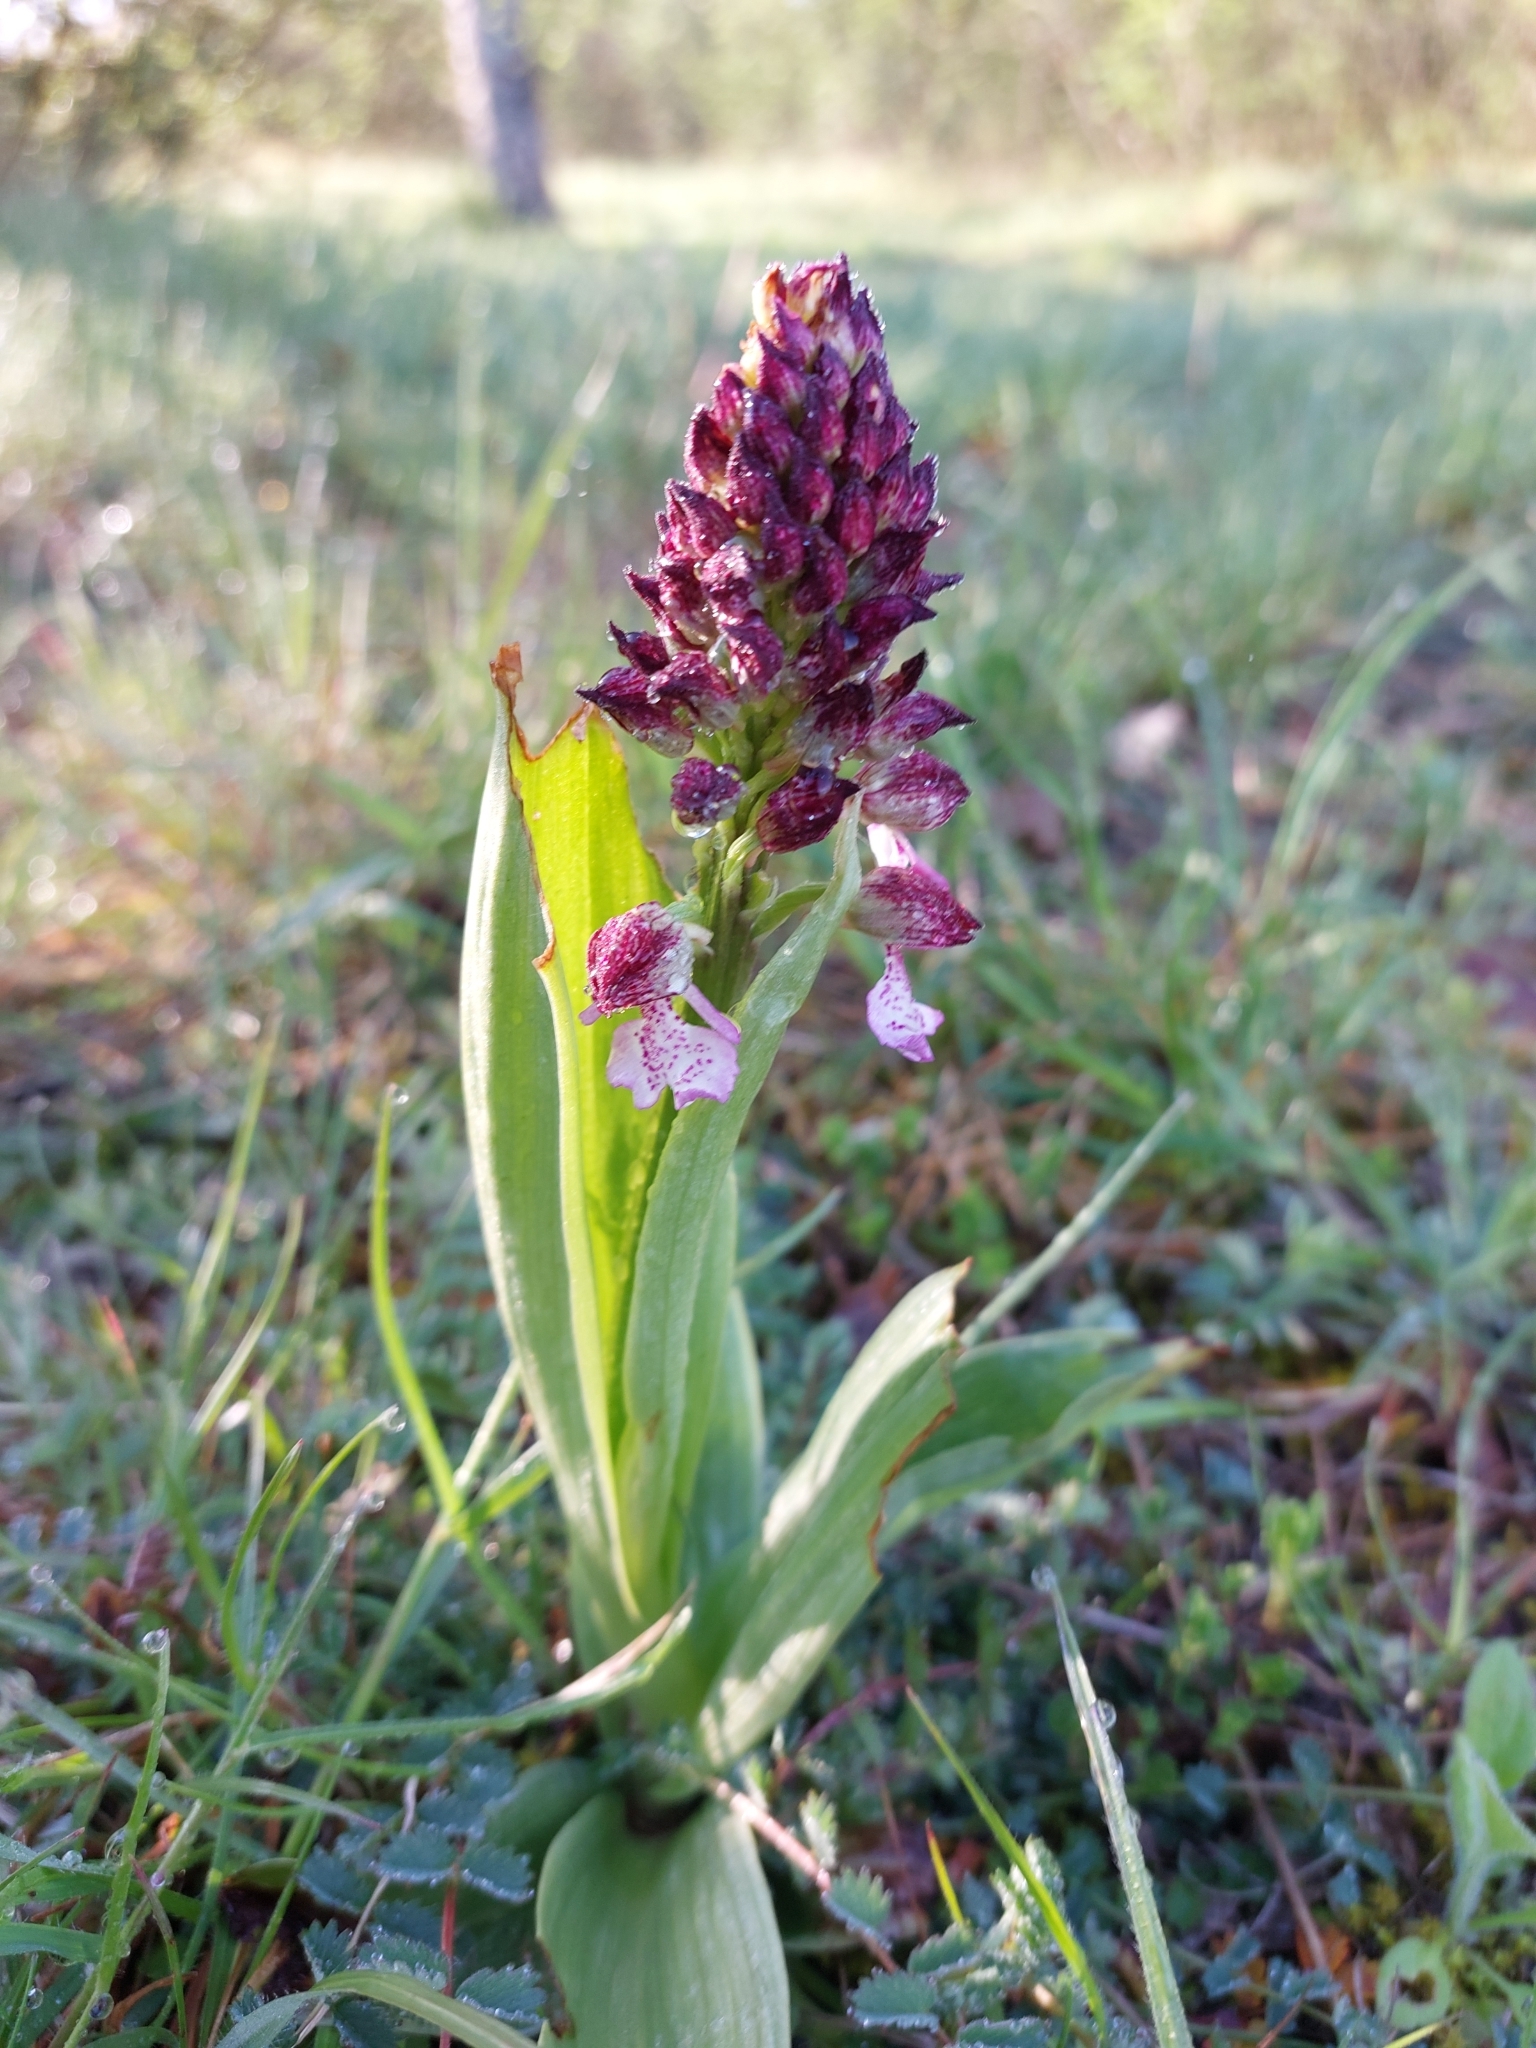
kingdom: Plantae
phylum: Tracheophyta
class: Liliopsida
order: Asparagales
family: Orchidaceae
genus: Orchis
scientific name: Orchis purpurea
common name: Lady orchid
